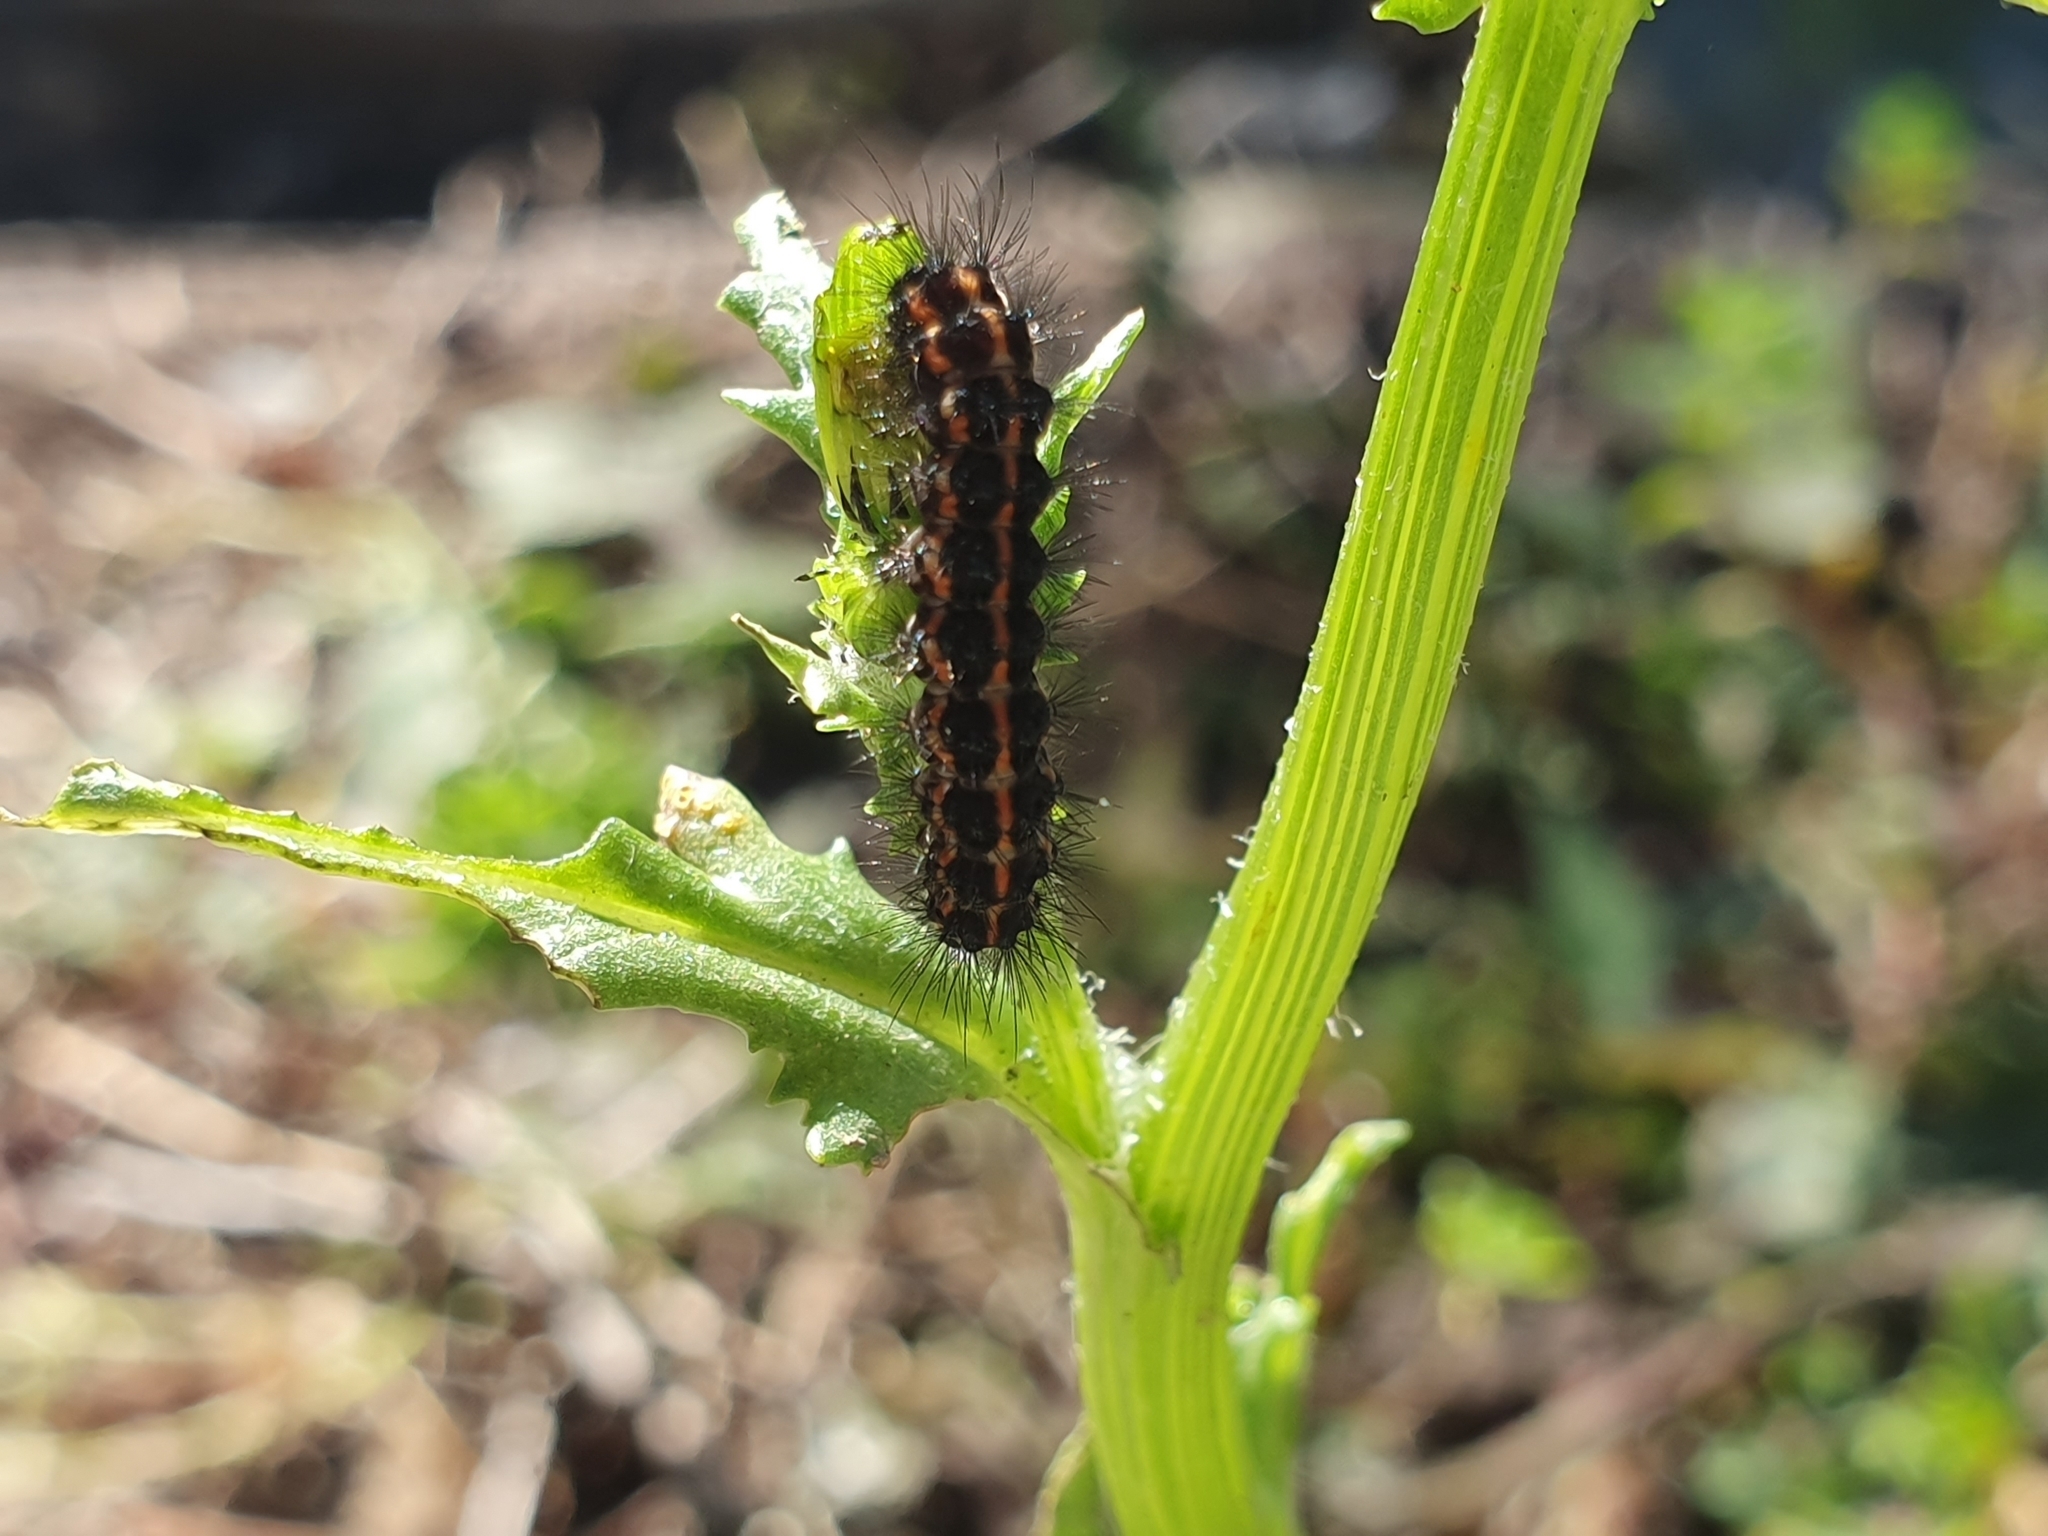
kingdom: Animalia
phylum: Arthropoda
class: Insecta
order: Lepidoptera
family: Erebidae
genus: Nyctemera
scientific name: Nyctemera annulatum
